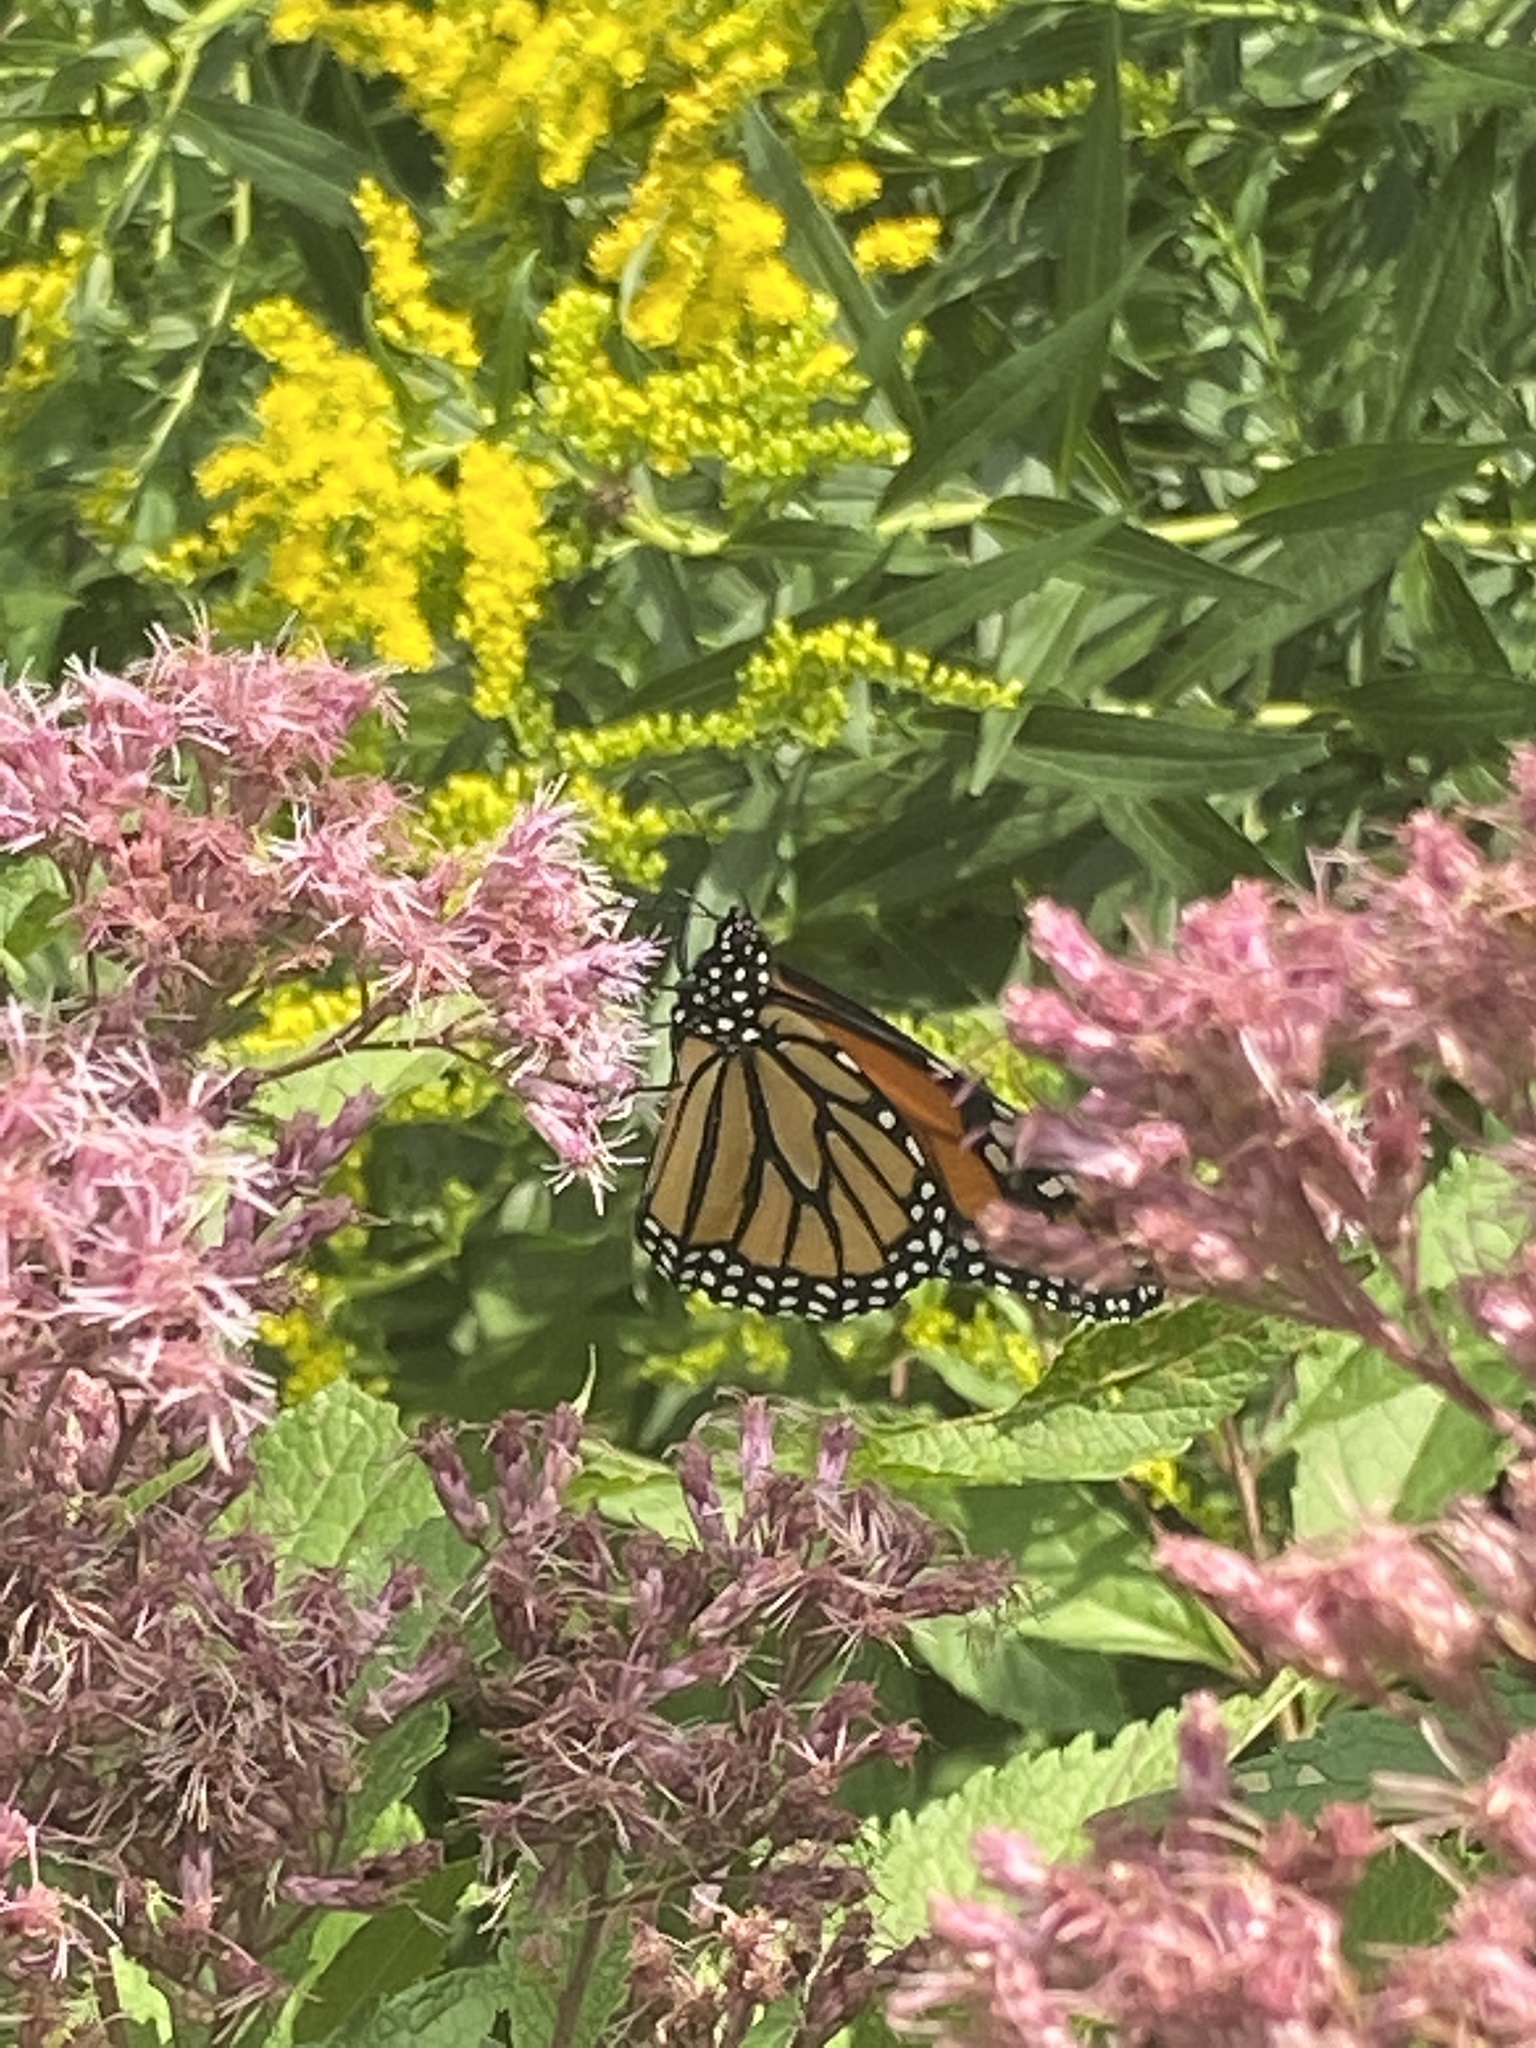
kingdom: Animalia
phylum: Arthropoda
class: Insecta
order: Lepidoptera
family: Nymphalidae
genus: Danaus
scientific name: Danaus plexippus
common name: Monarch
